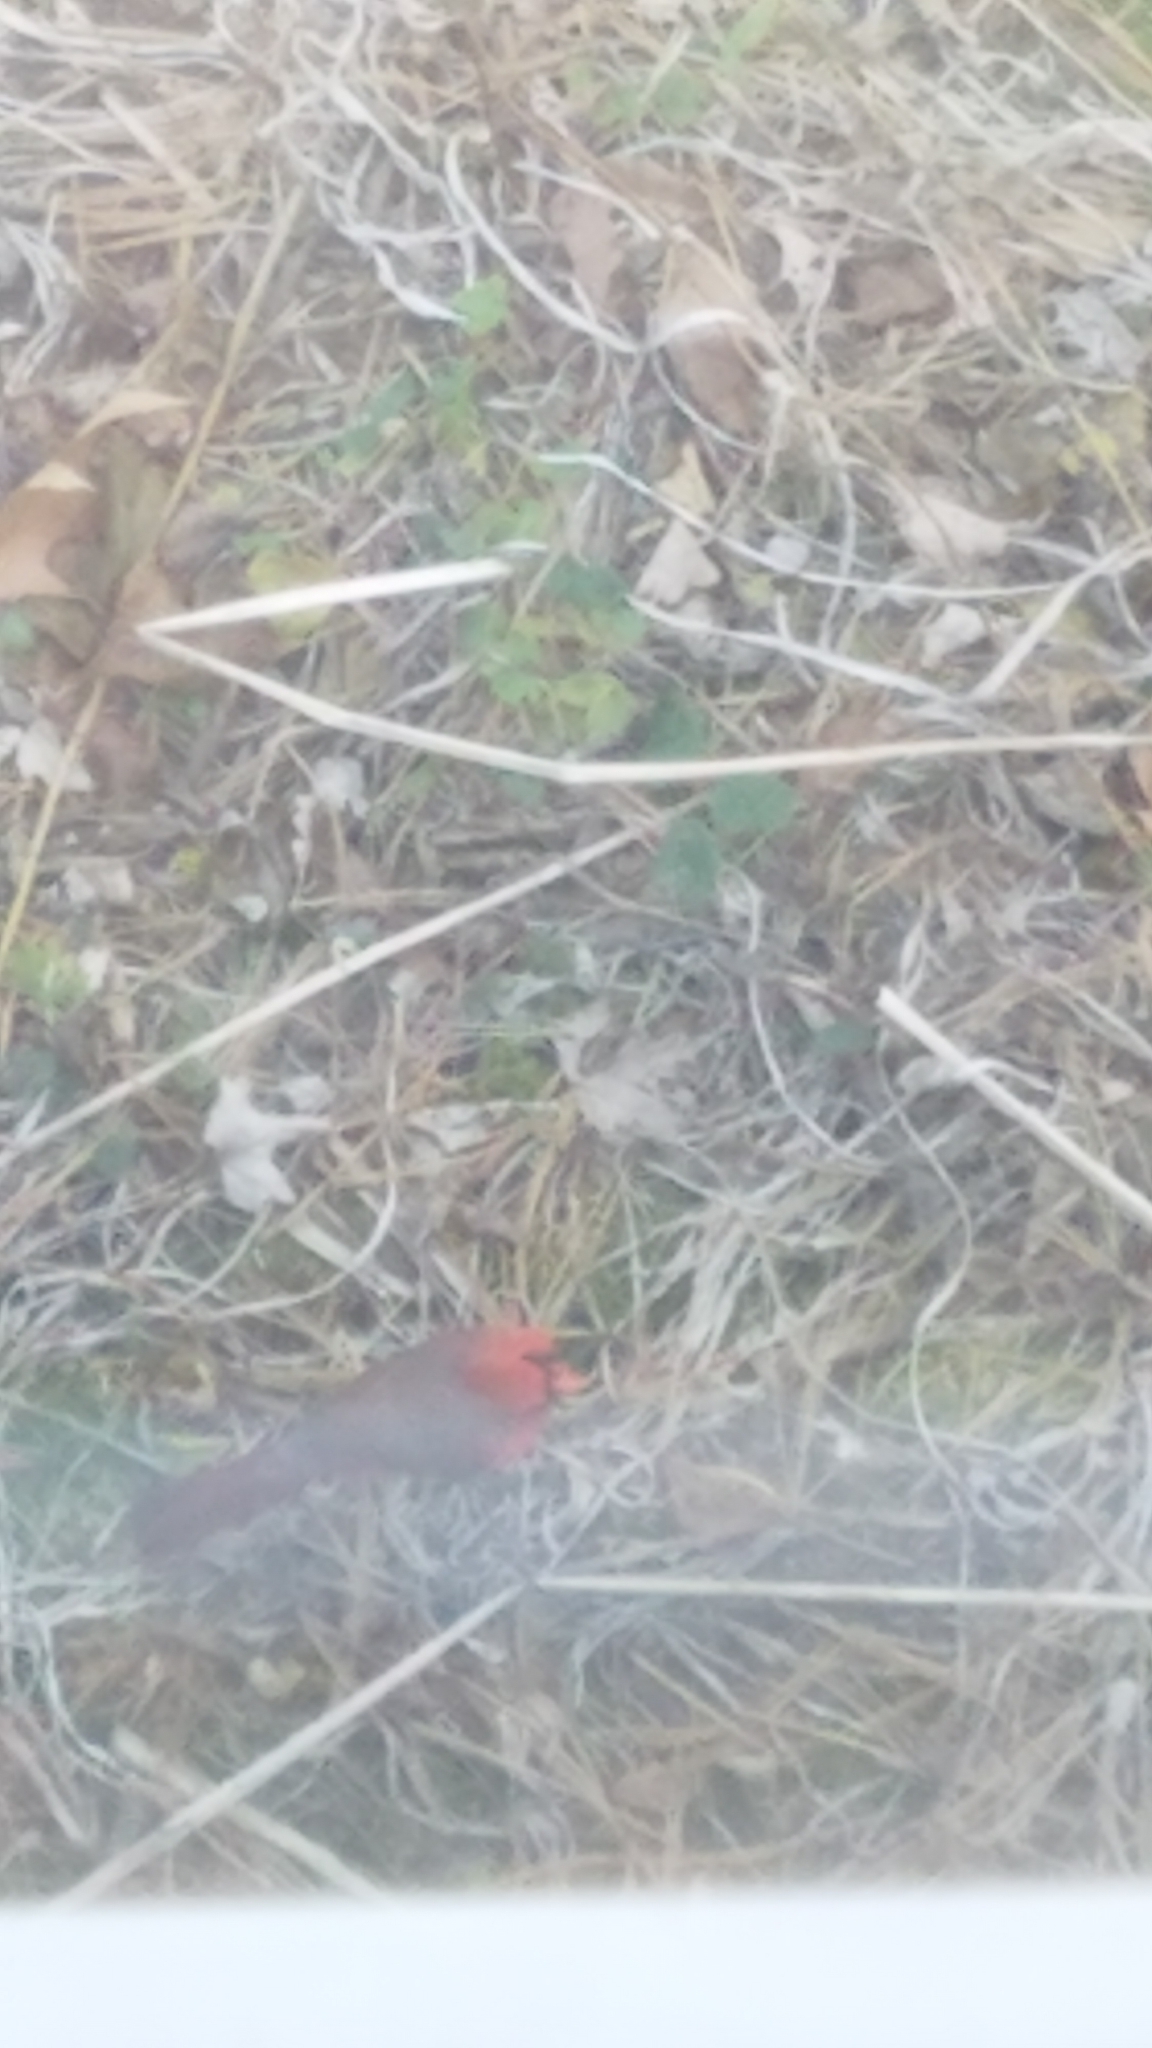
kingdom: Animalia
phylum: Chordata
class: Aves
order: Passeriformes
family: Cardinalidae
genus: Cardinalis
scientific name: Cardinalis cardinalis
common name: Northern cardinal
